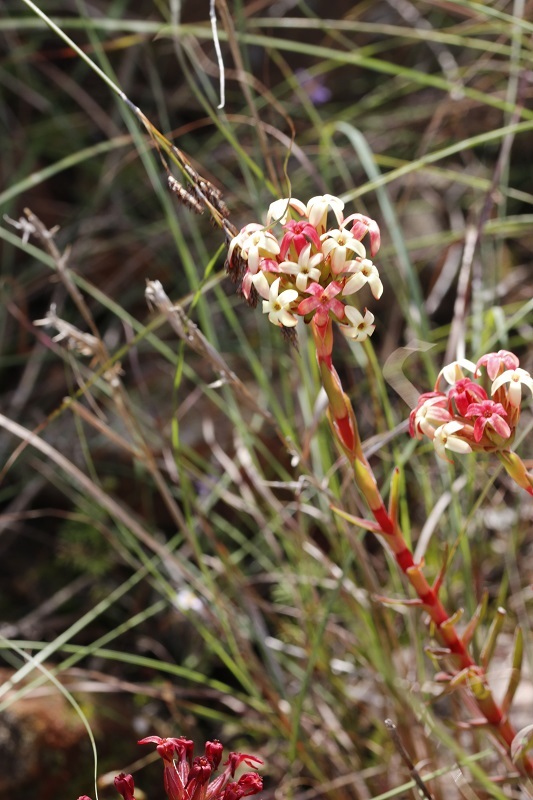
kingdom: Plantae
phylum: Tracheophyta
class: Magnoliopsida
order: Saxifragales
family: Crassulaceae
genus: Crassula
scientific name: Crassula fascicularis
